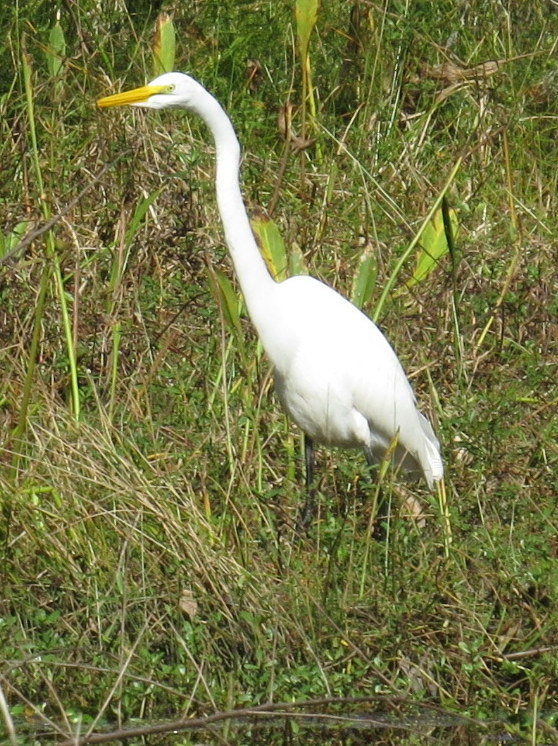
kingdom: Animalia
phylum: Chordata
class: Aves
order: Pelecaniformes
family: Ardeidae
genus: Ardea
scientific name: Ardea alba
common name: Great egret
